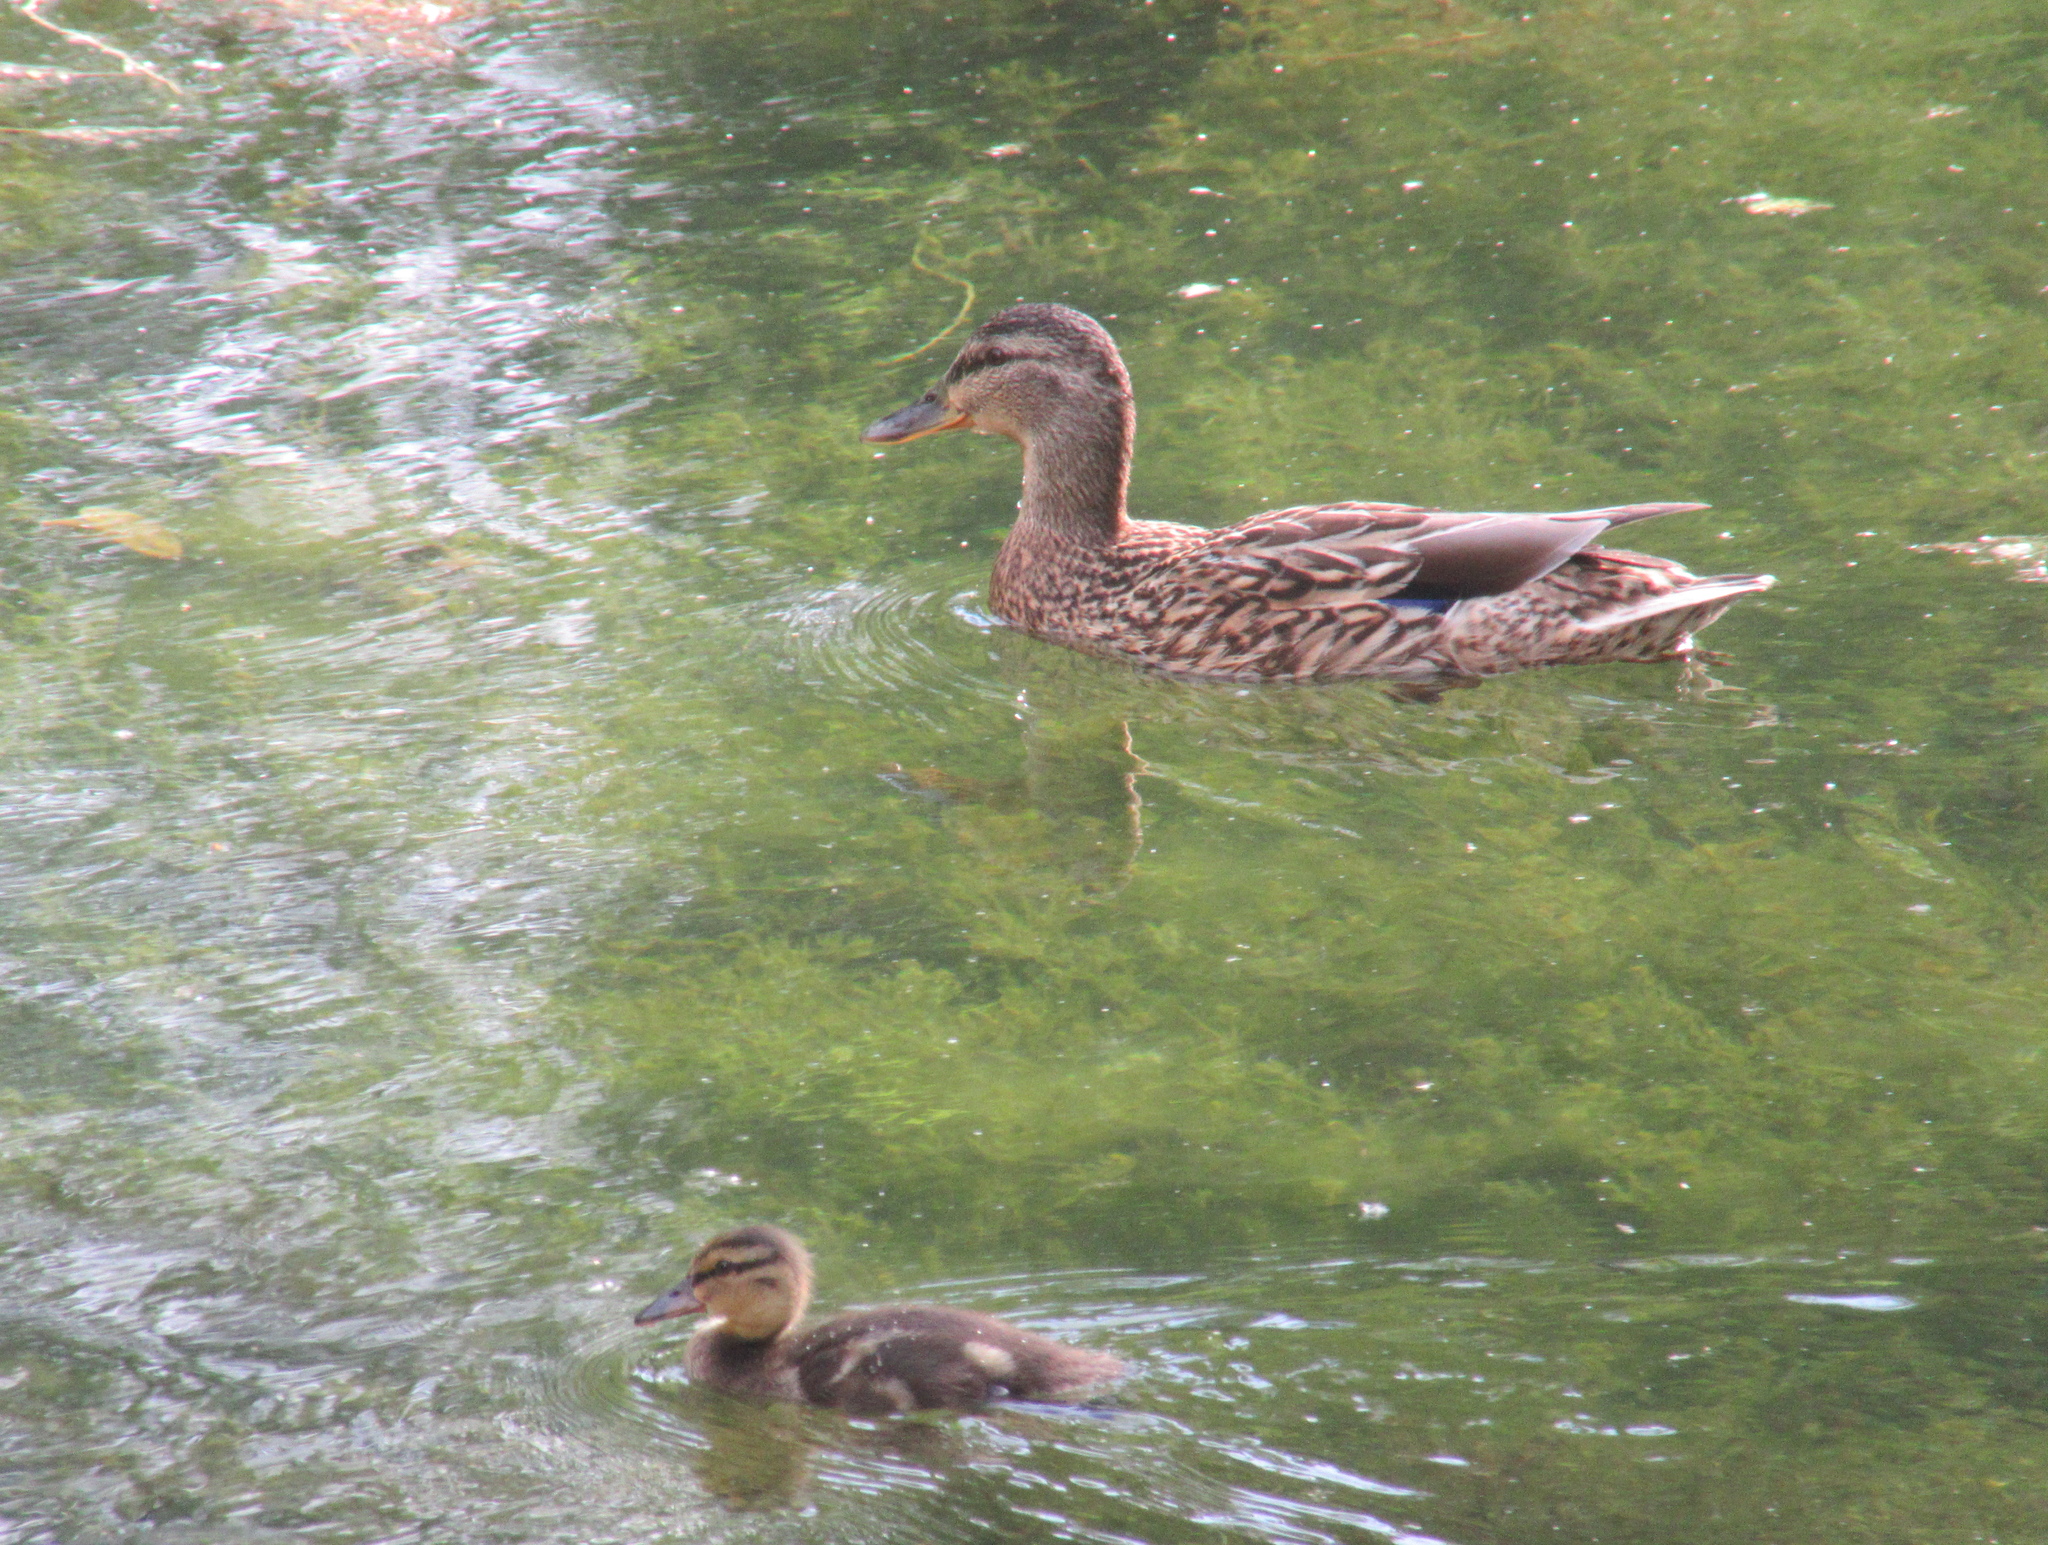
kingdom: Animalia
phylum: Chordata
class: Aves
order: Anseriformes
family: Anatidae
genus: Anas
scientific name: Anas platyrhynchos
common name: Mallard
